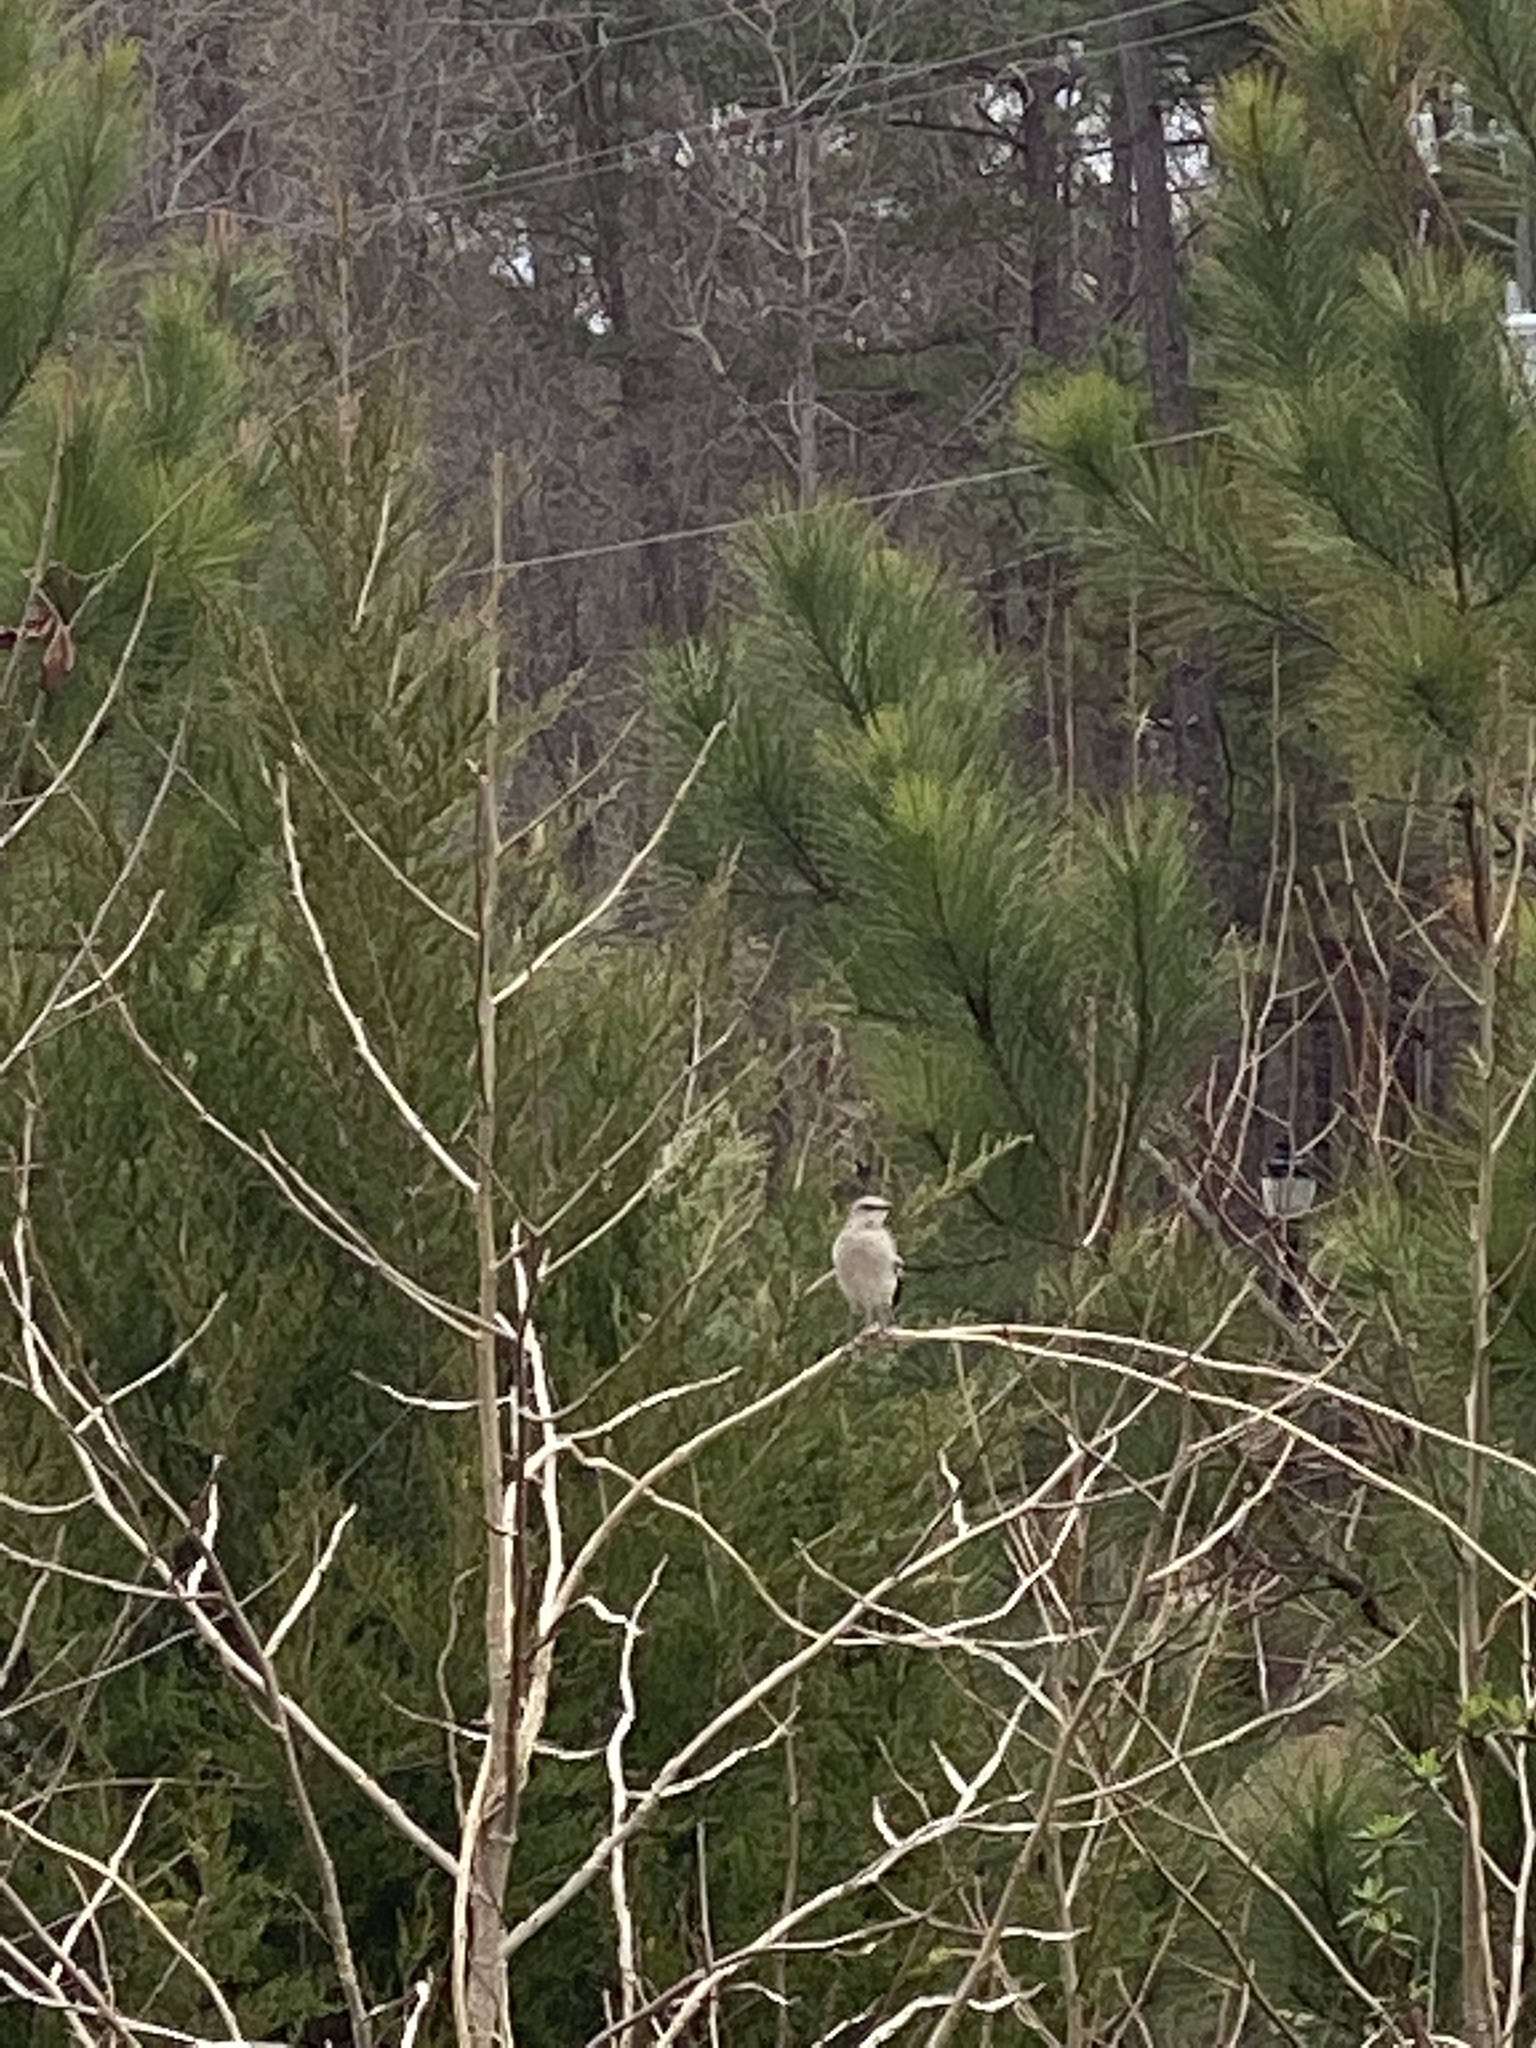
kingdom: Animalia
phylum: Chordata
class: Aves
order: Passeriformes
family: Mimidae
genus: Mimus
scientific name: Mimus polyglottos
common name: Northern mockingbird
